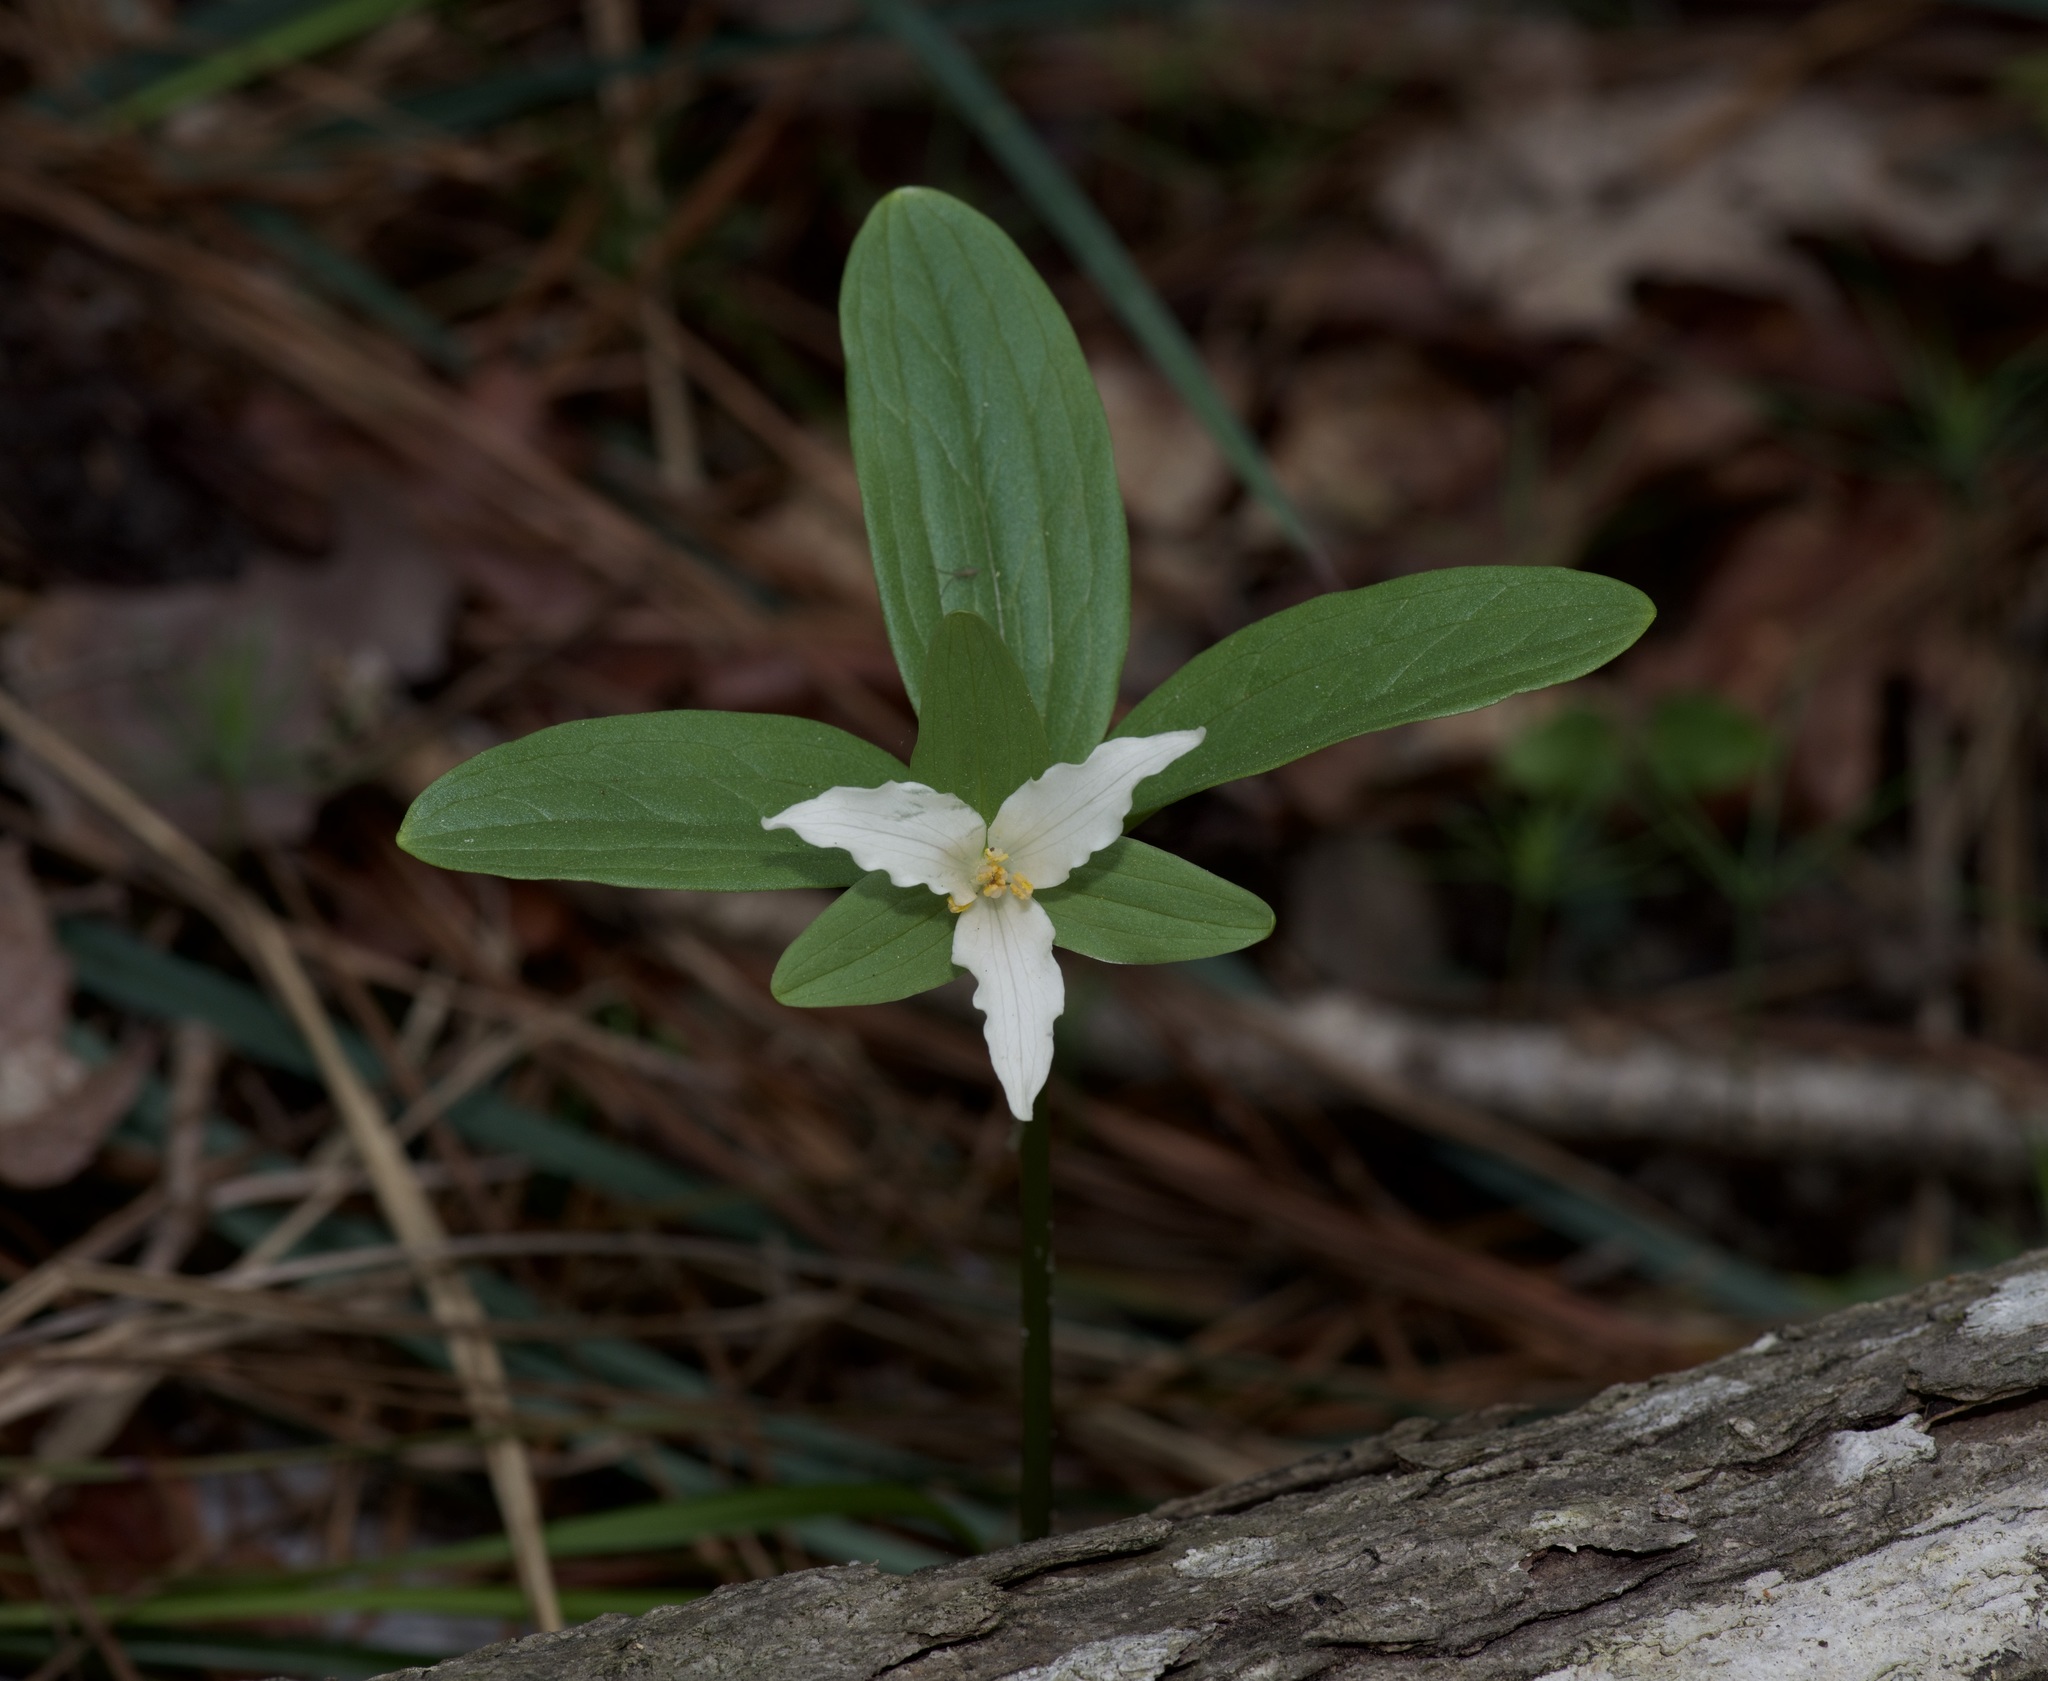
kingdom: Plantae
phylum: Tracheophyta
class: Liliopsida
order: Liliales
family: Melanthiaceae
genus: Trillium
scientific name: Trillium pusillum
